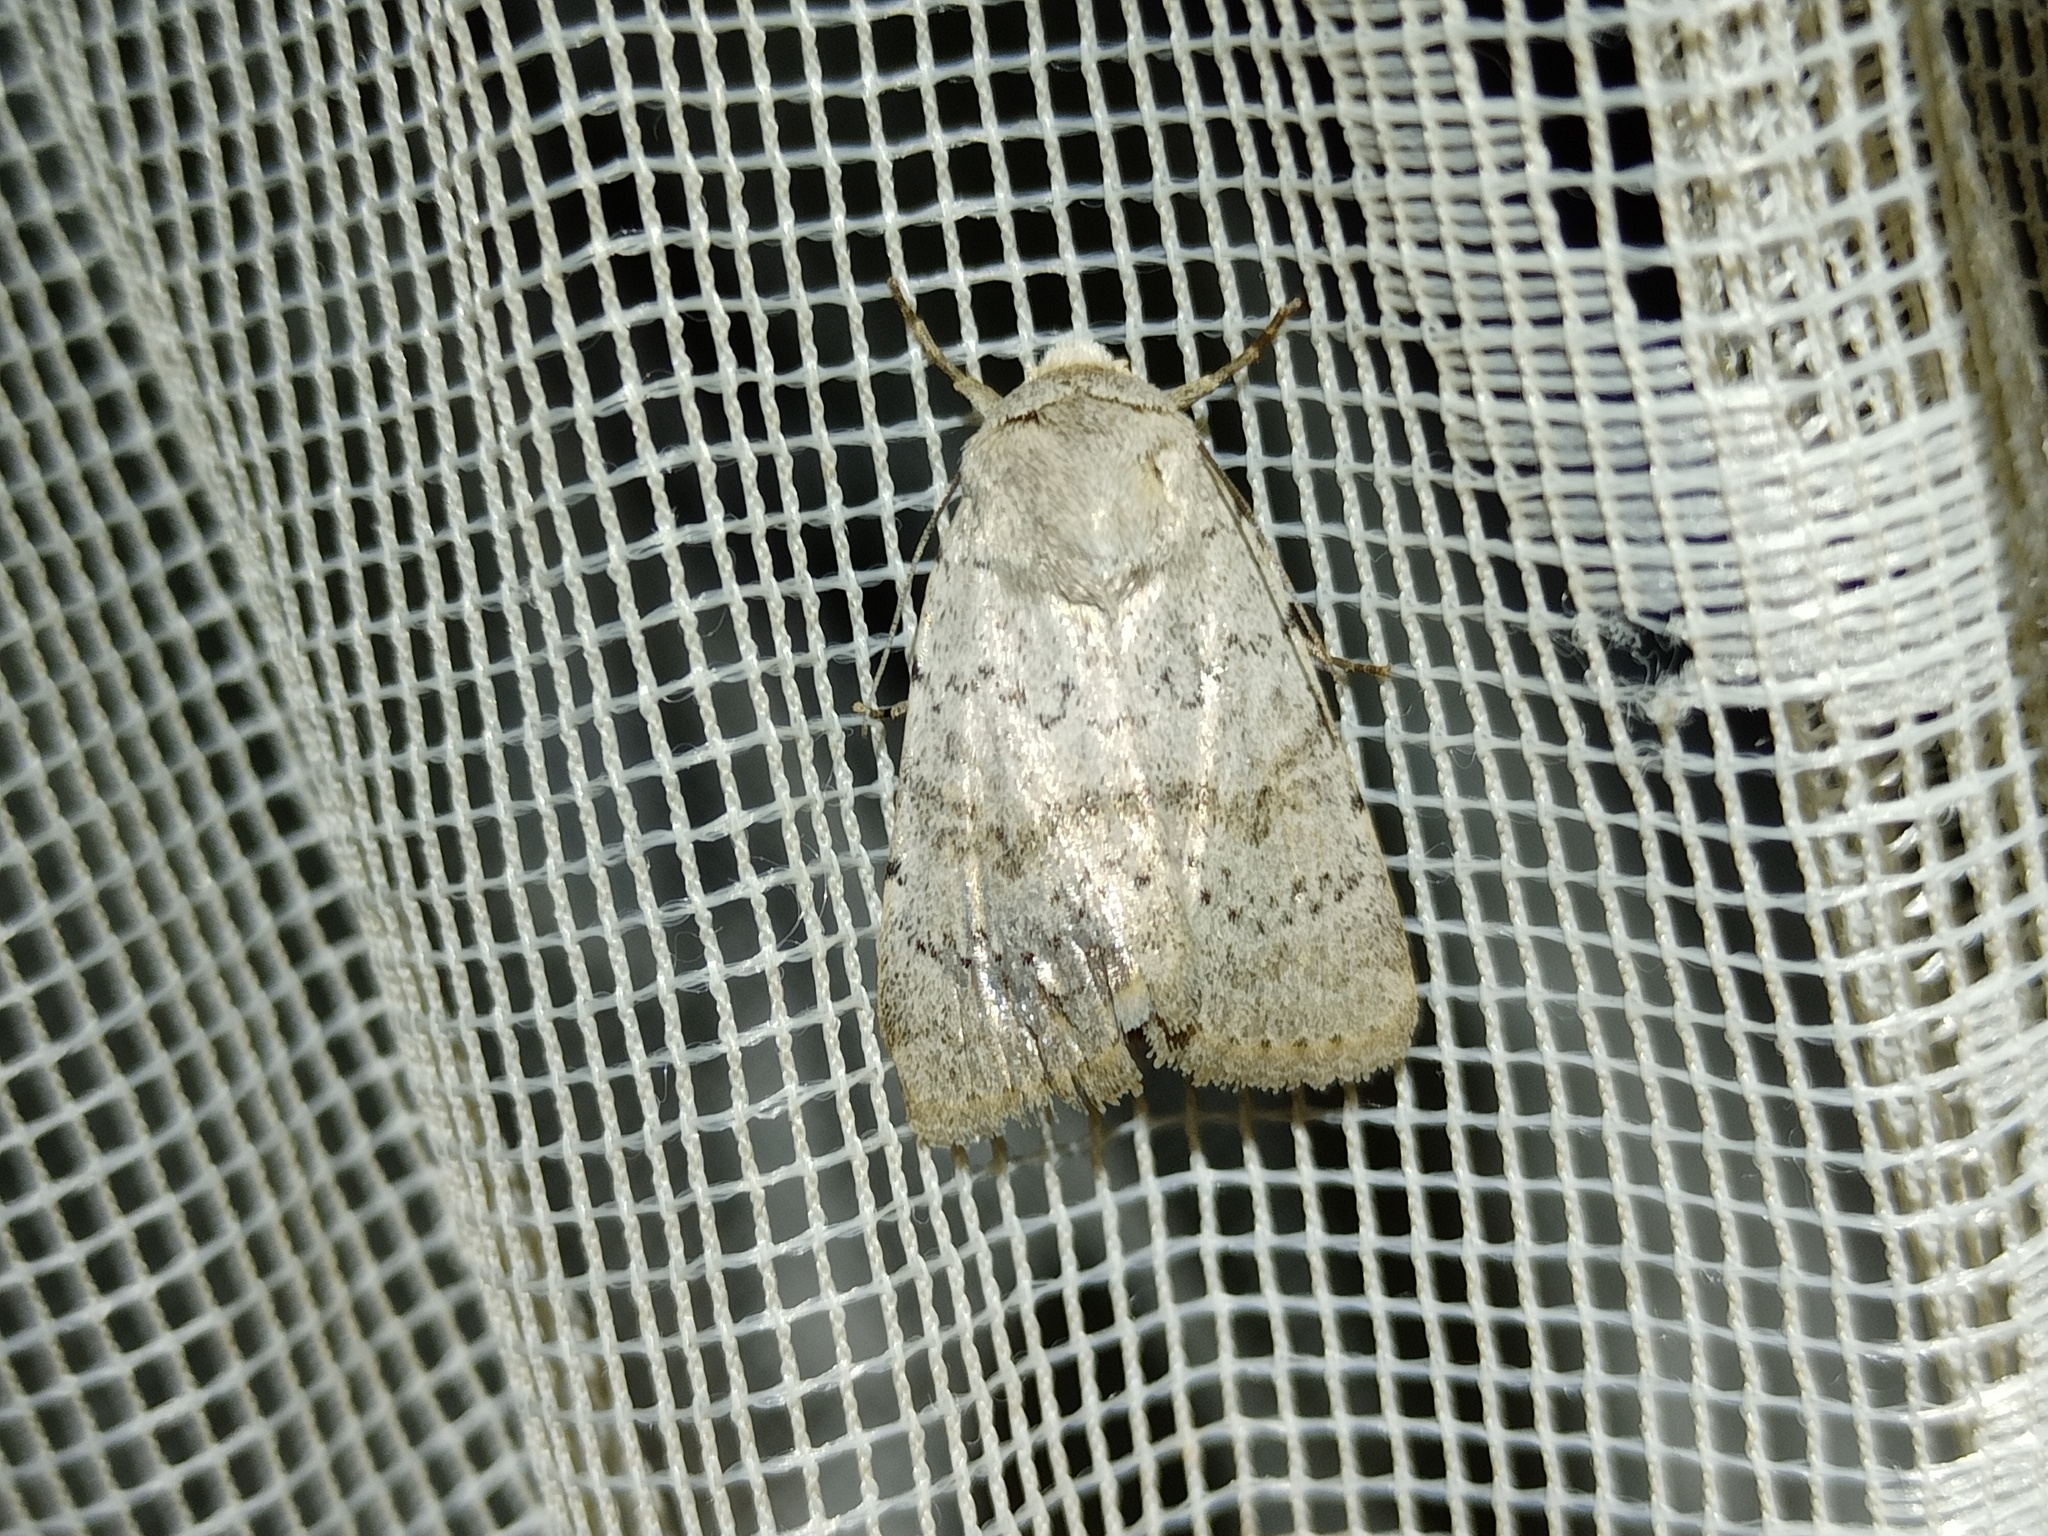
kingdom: Animalia
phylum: Arthropoda
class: Insecta
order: Lepidoptera
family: Noctuidae
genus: Hoplodrina
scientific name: Hoplodrina respersa
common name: Sprinkled rustic
